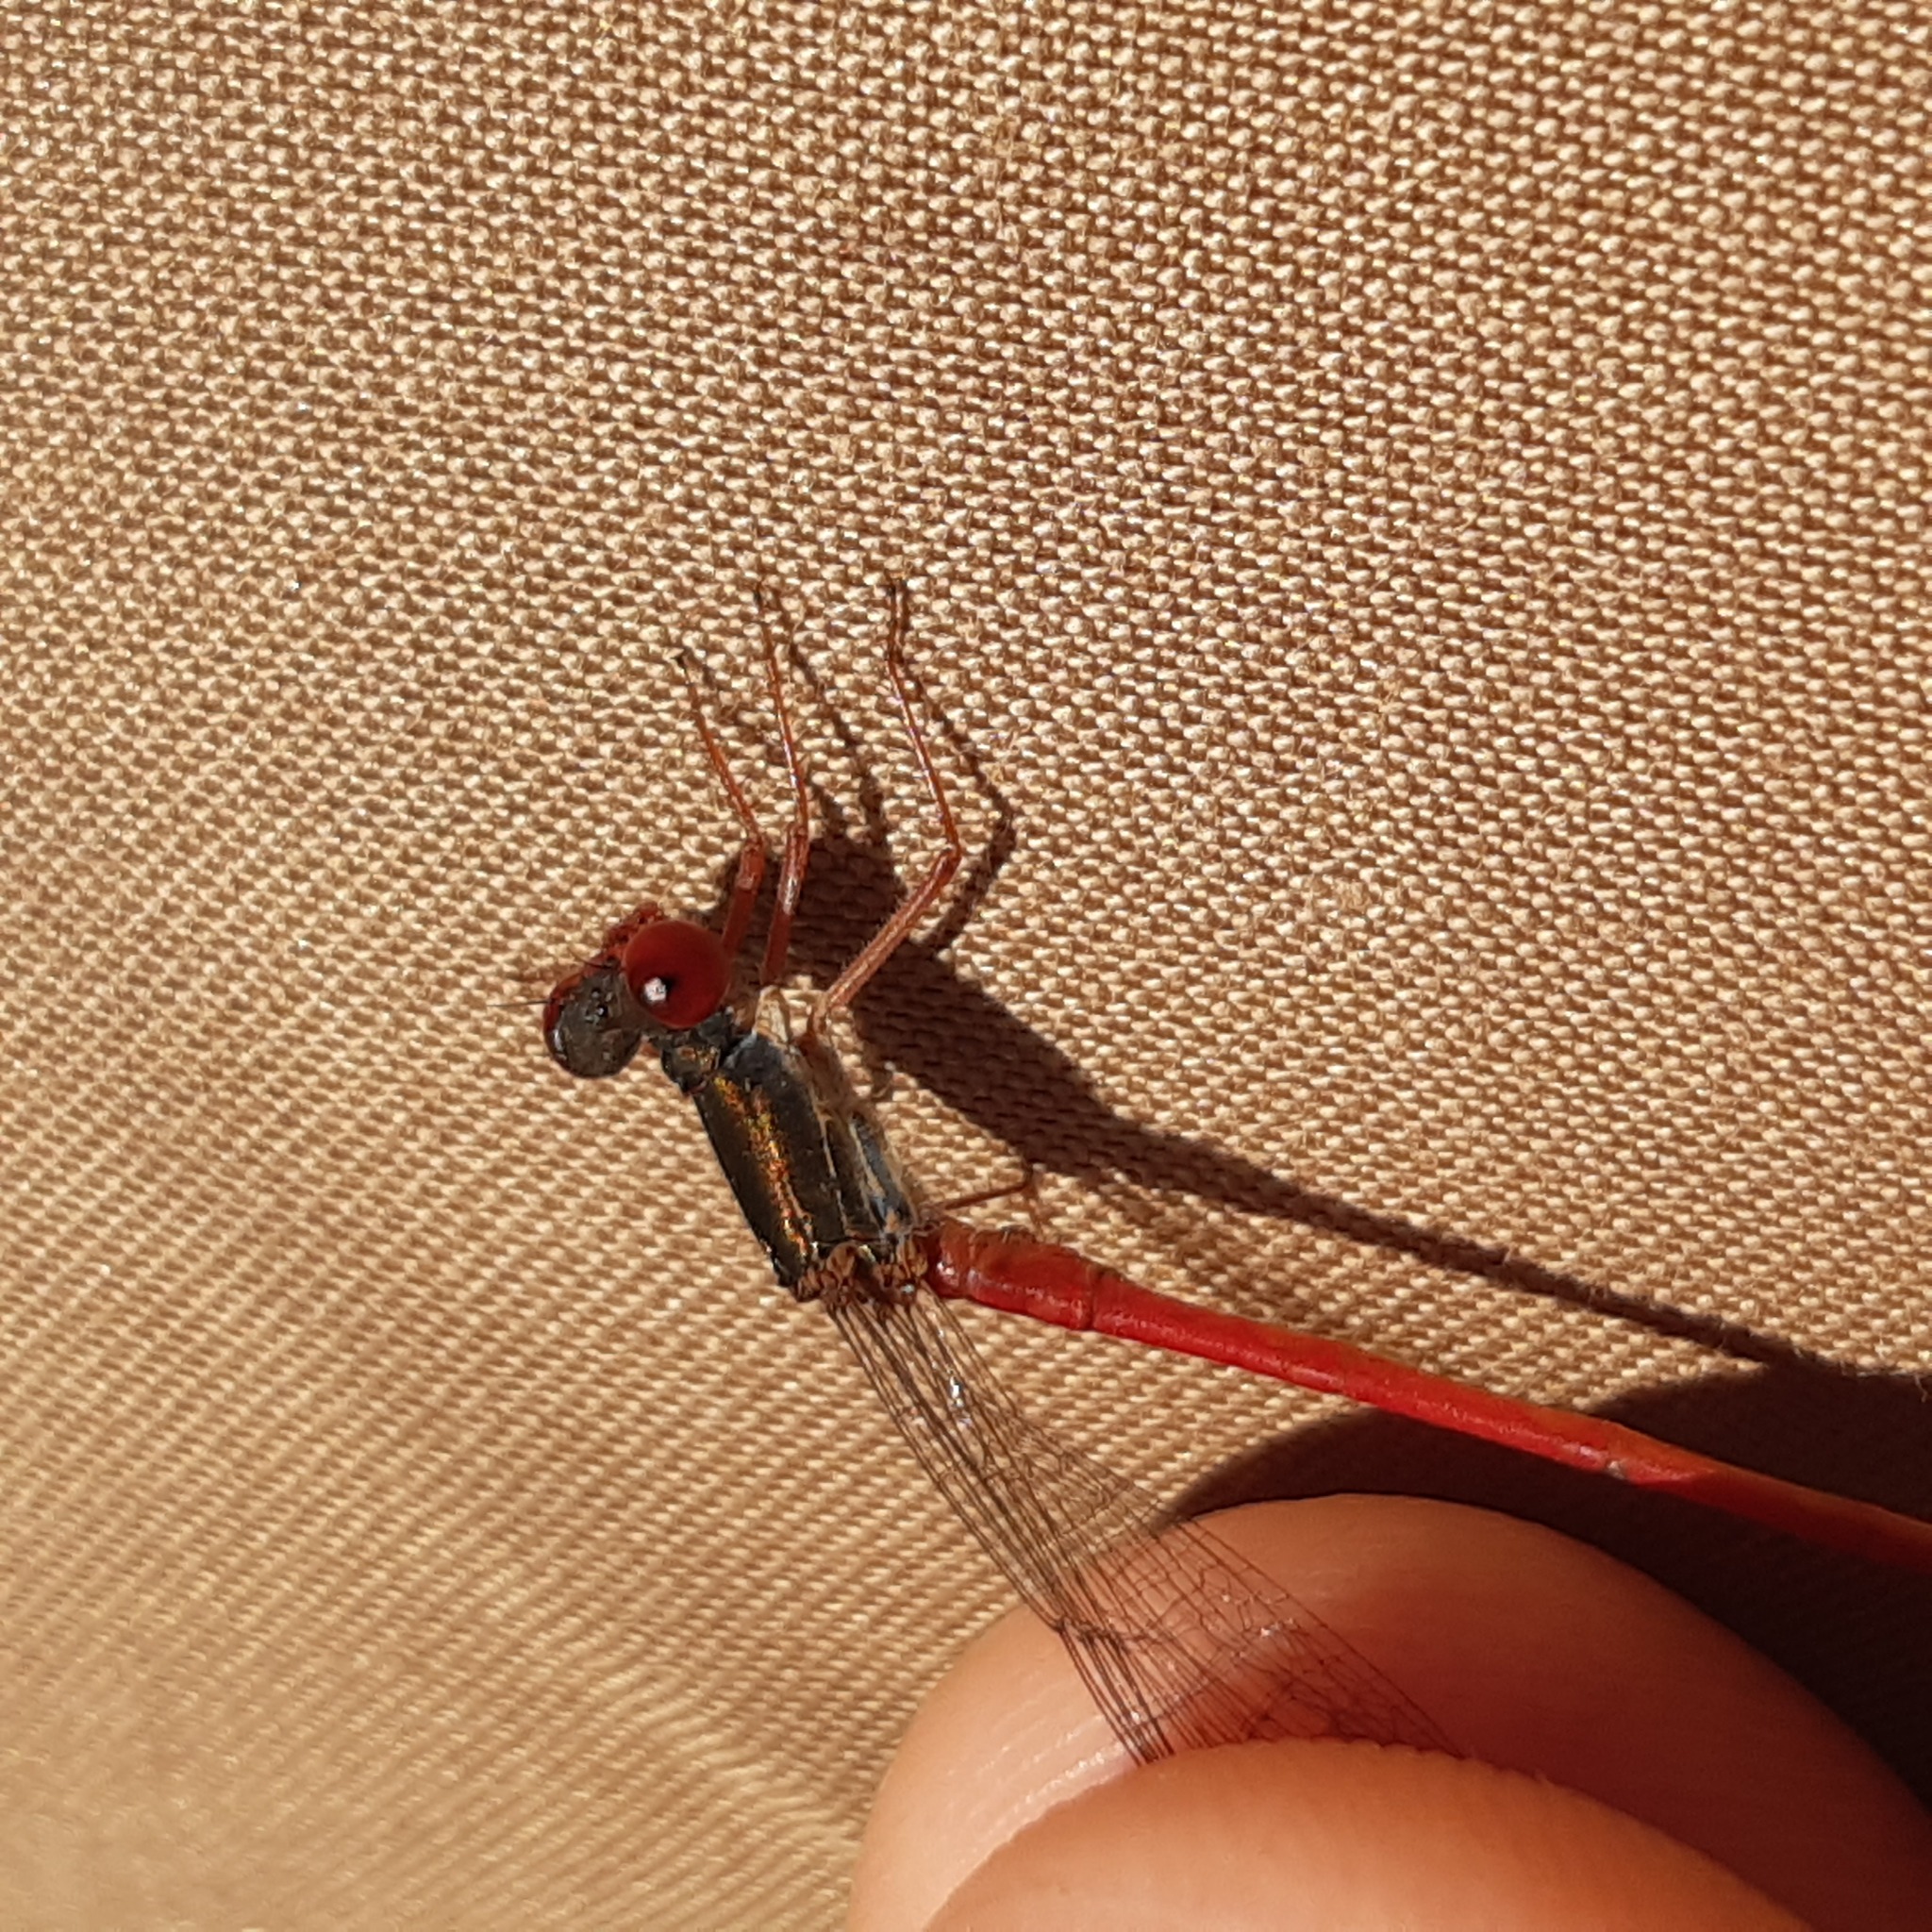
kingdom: Animalia
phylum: Arthropoda
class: Insecta
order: Odonata
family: Coenagrionidae
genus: Ceriagrion
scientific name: Ceriagrion tenellum
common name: Small red damselfly
